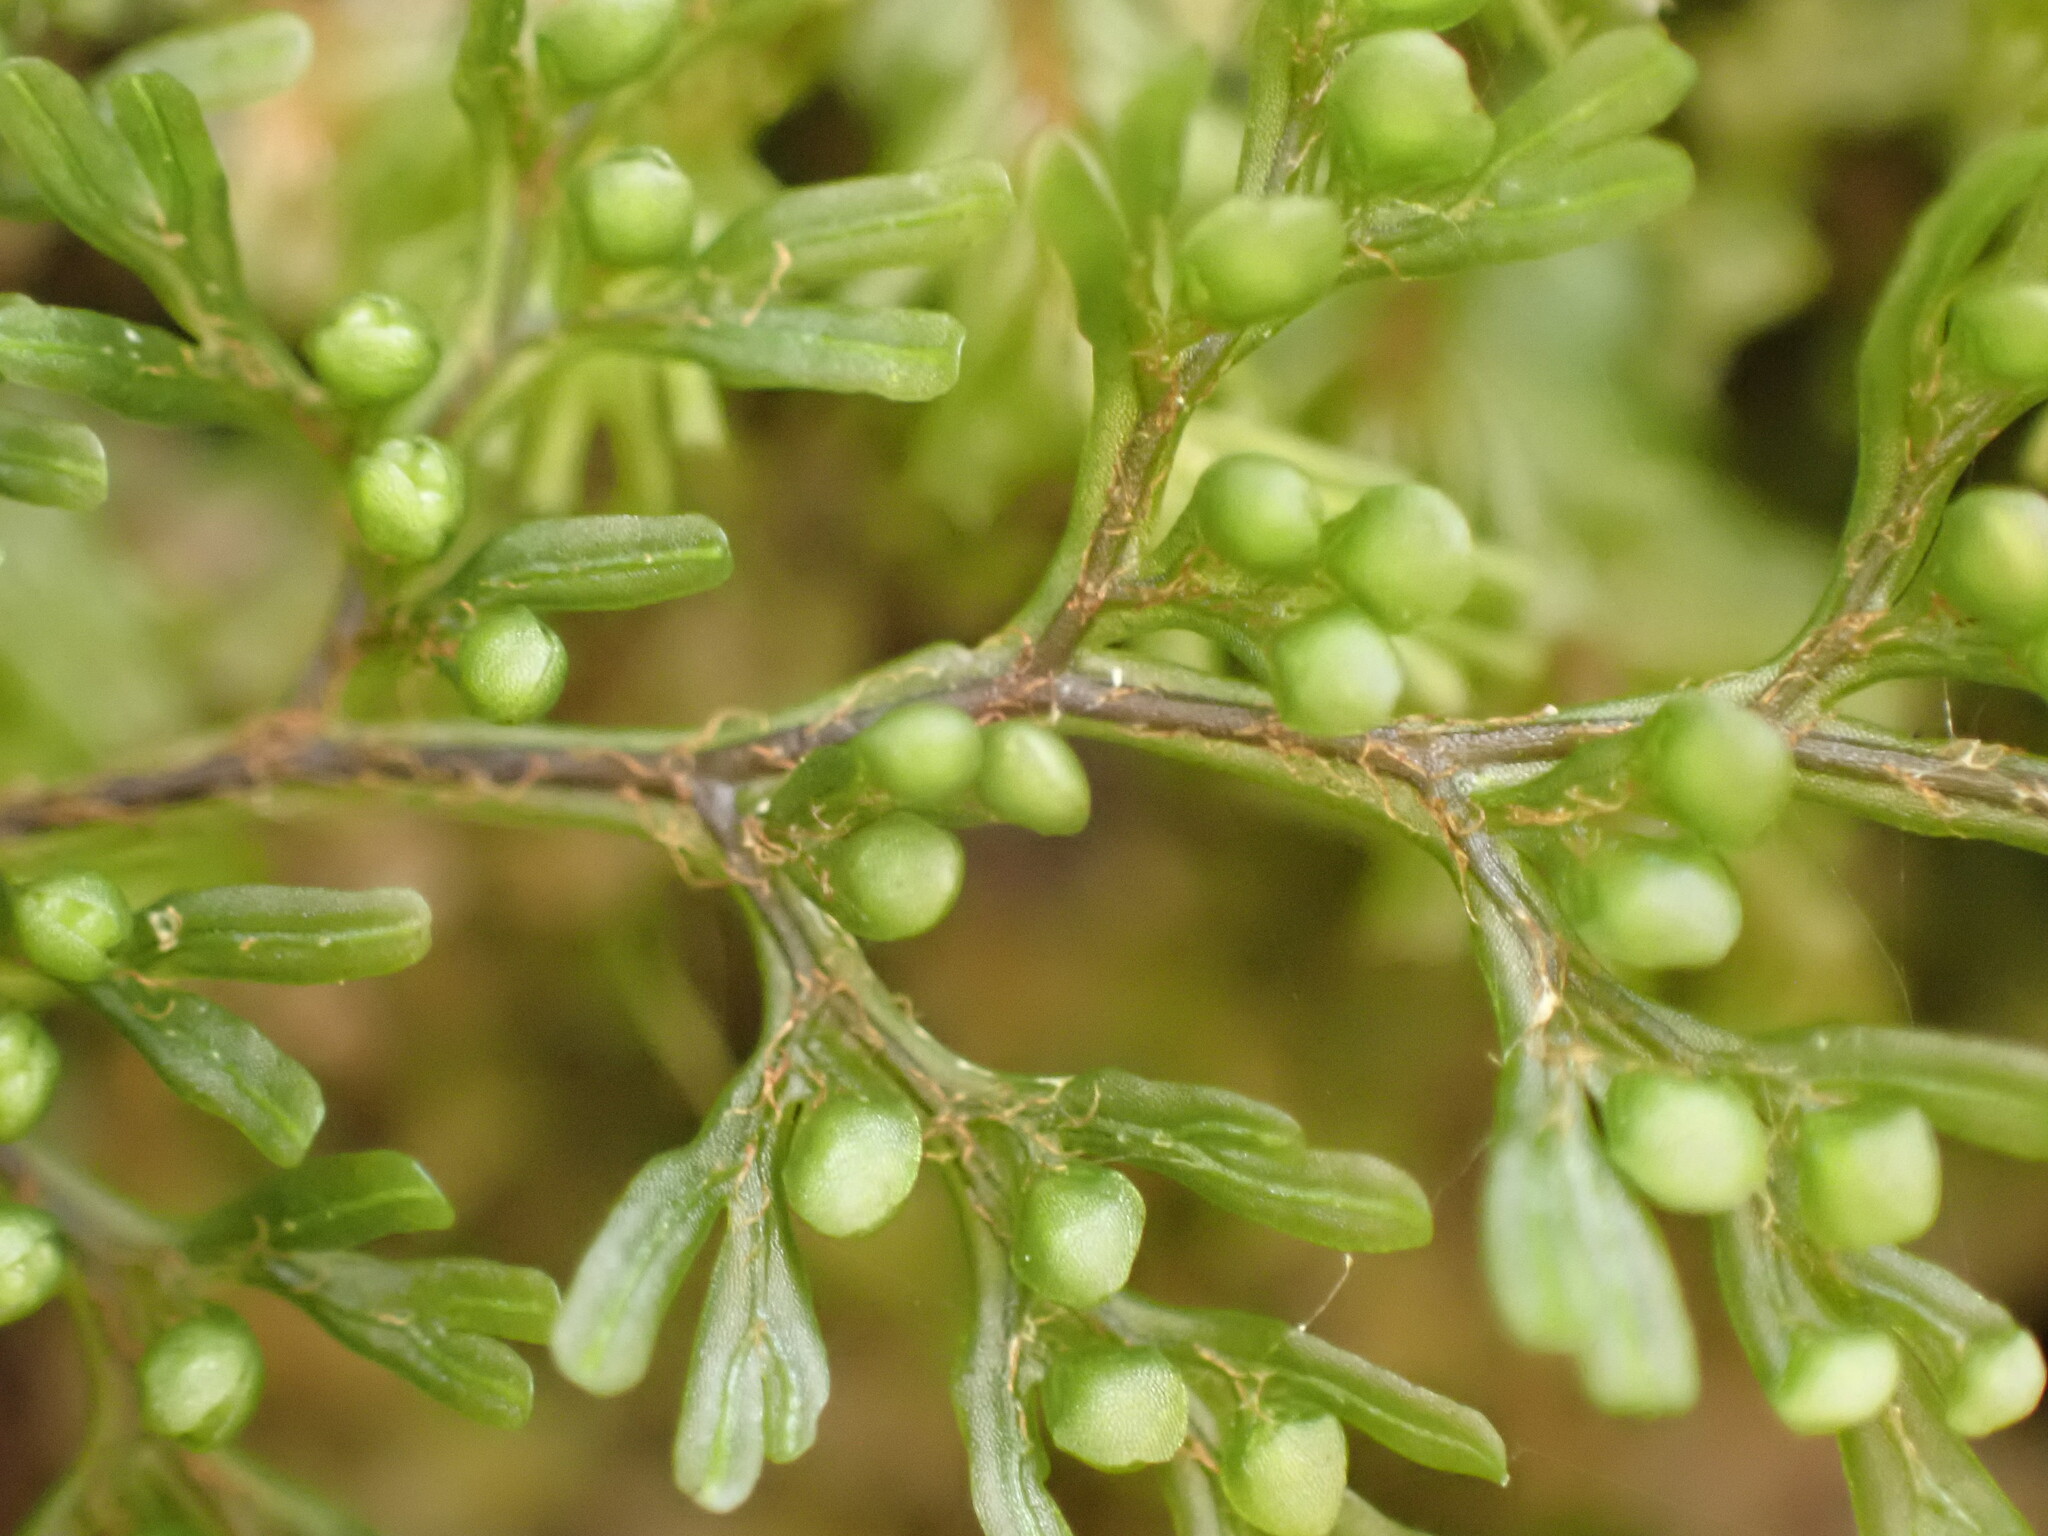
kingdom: Plantae
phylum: Tracheophyta
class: Polypodiopsida
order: Hymenophyllales
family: Hymenophyllaceae
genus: Hymenophyllum
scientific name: Hymenophyllum villosum
